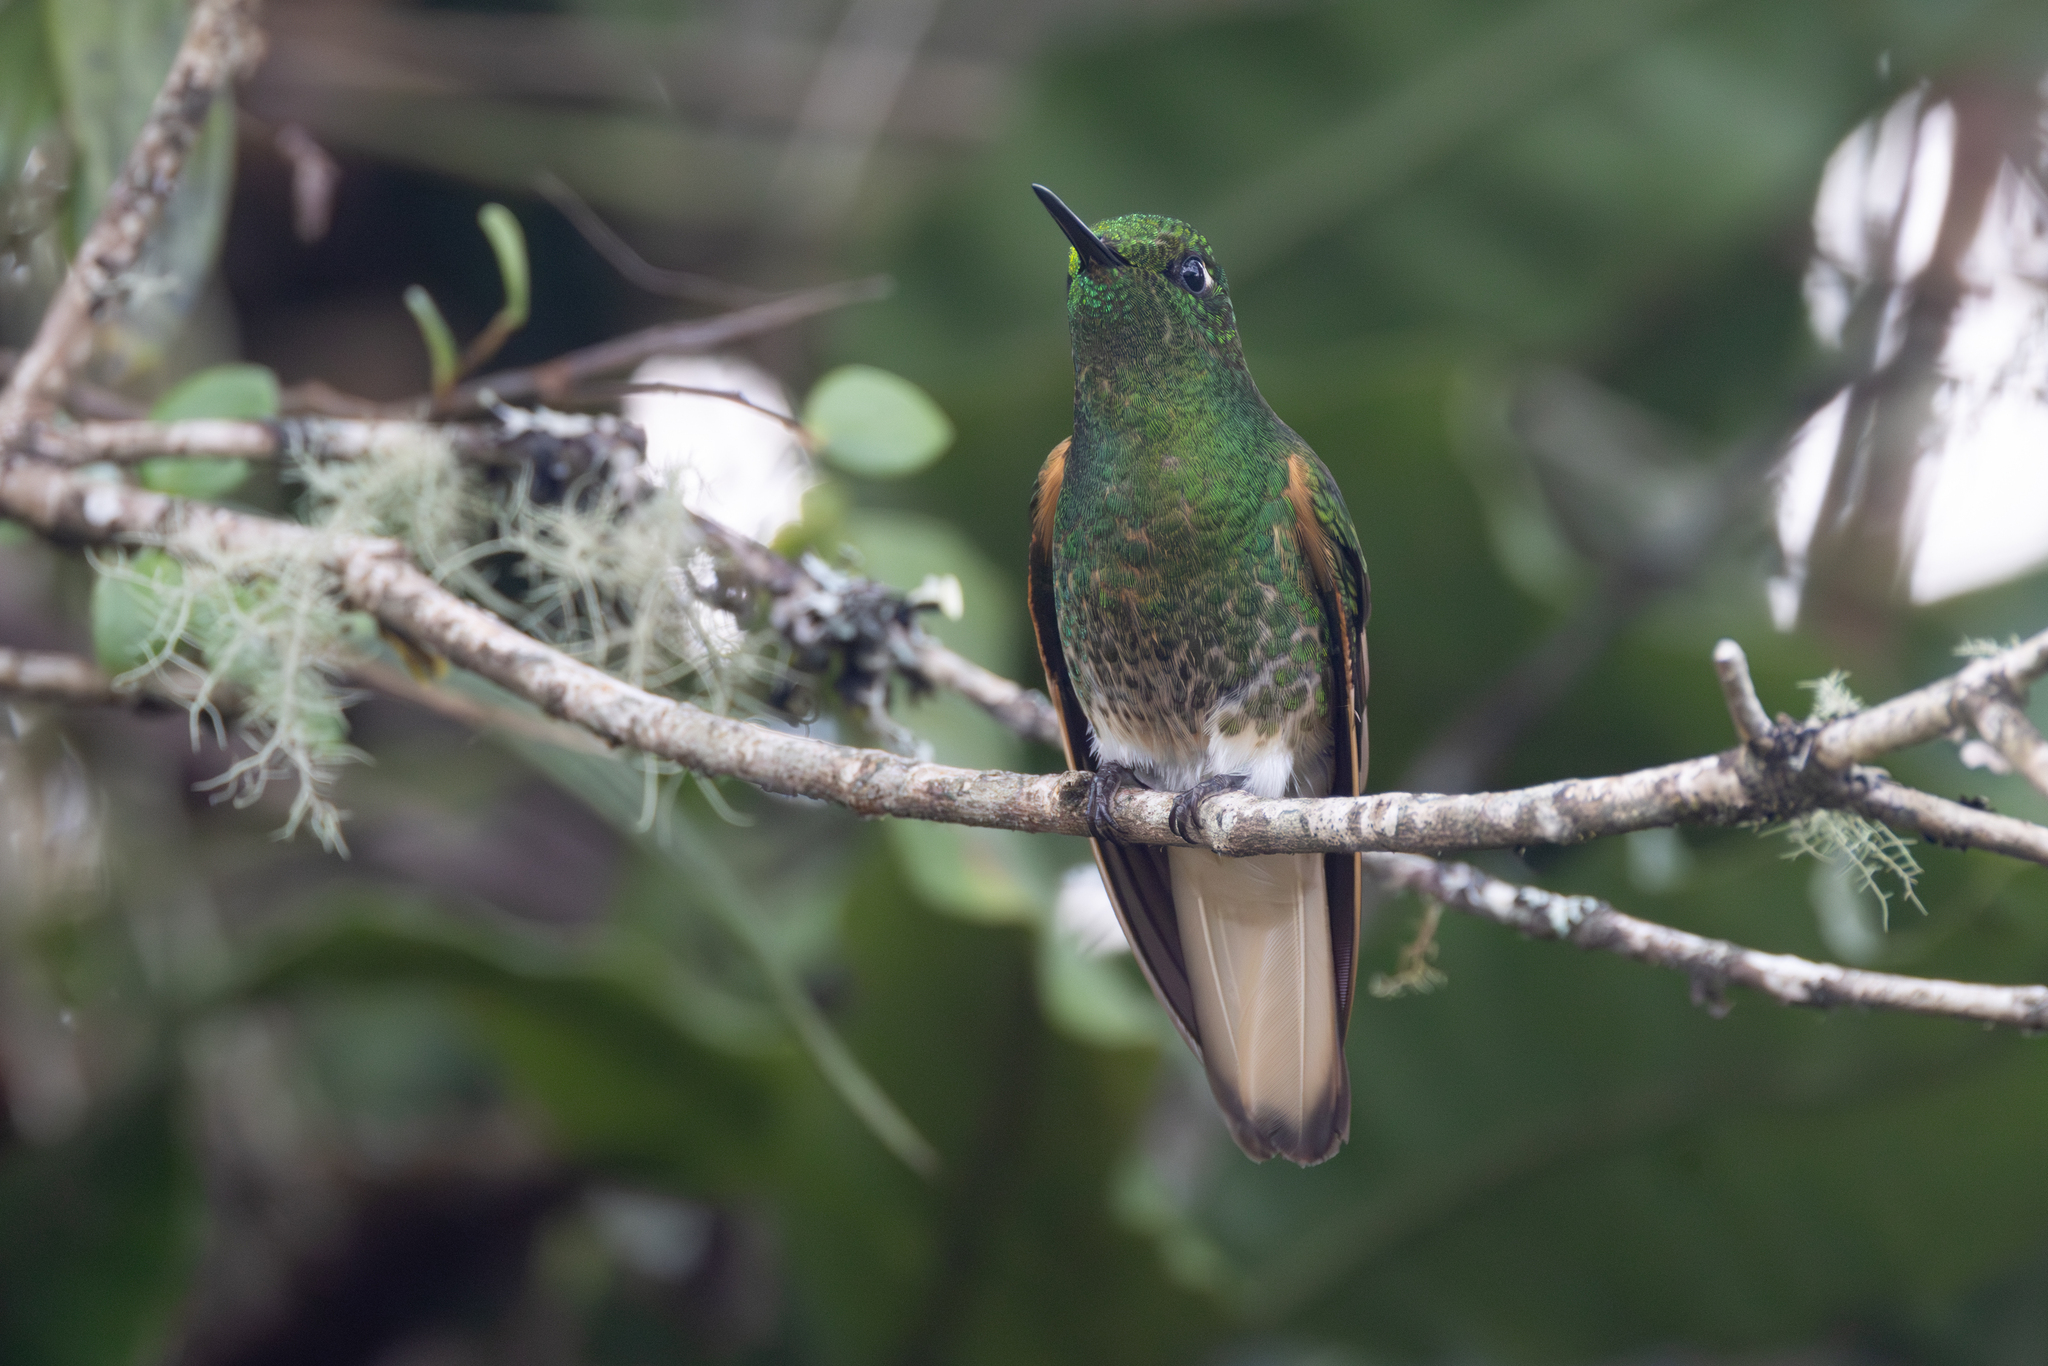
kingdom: Animalia
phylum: Chordata
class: Aves
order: Apodiformes
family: Trochilidae
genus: Boissonneaua
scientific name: Boissonneaua flavescens
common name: Buff-tailed coronet
